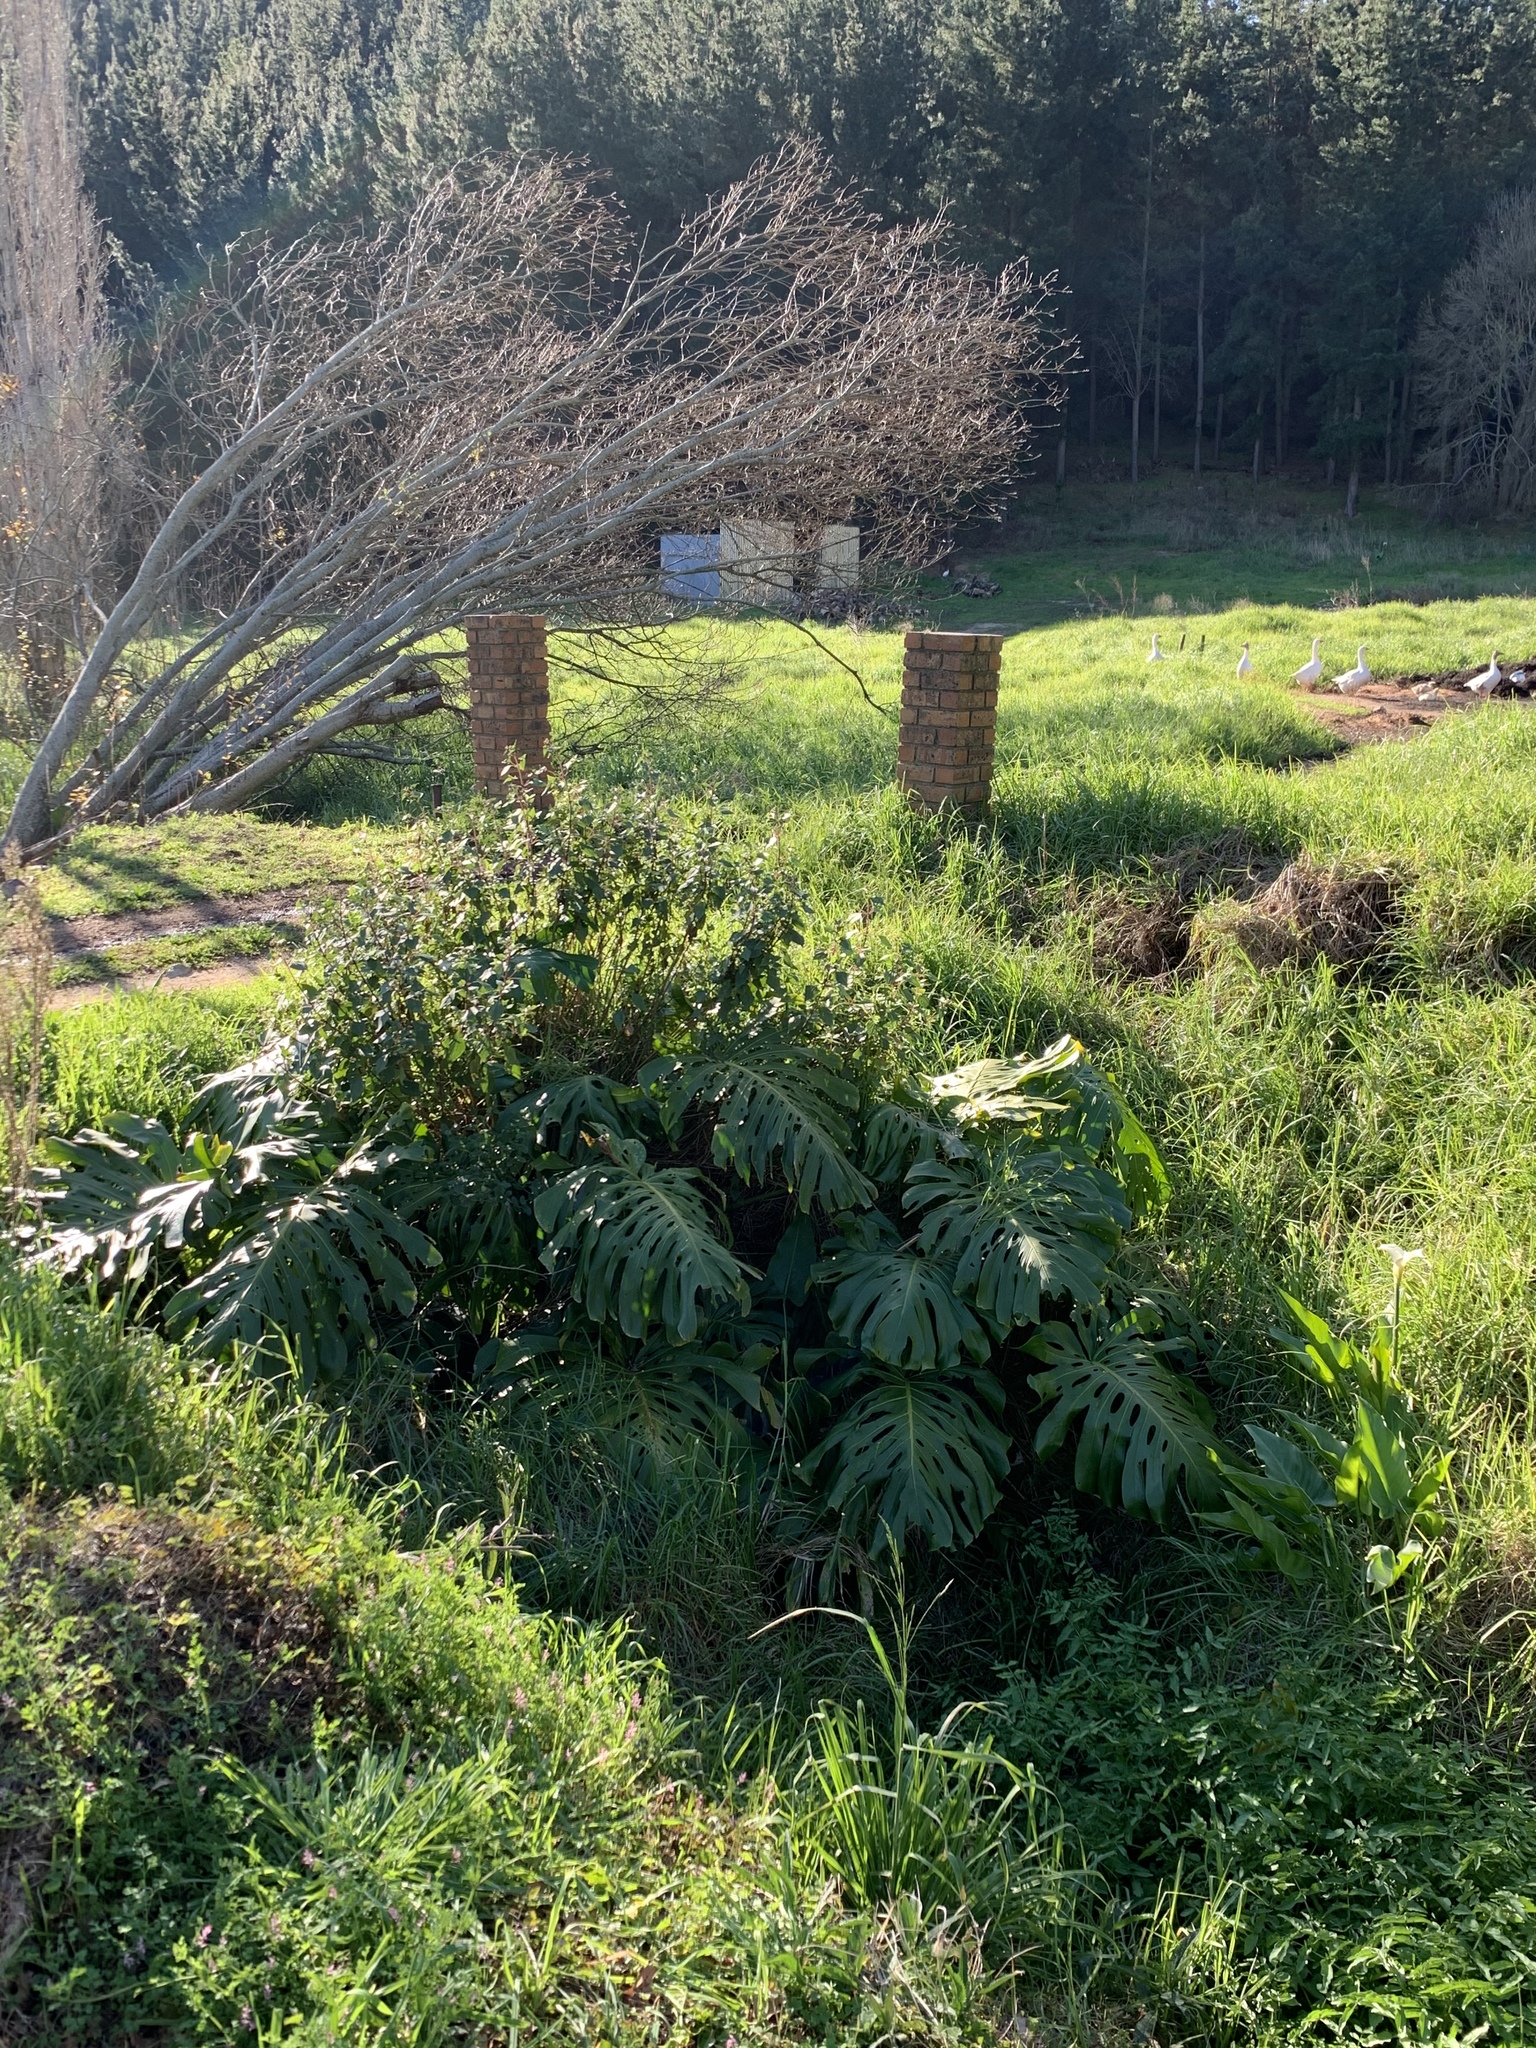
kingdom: Plantae
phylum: Tracheophyta
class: Liliopsida
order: Alismatales
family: Araceae
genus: Monstera
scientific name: Monstera deliciosa
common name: Cut-leaf-philodendron
